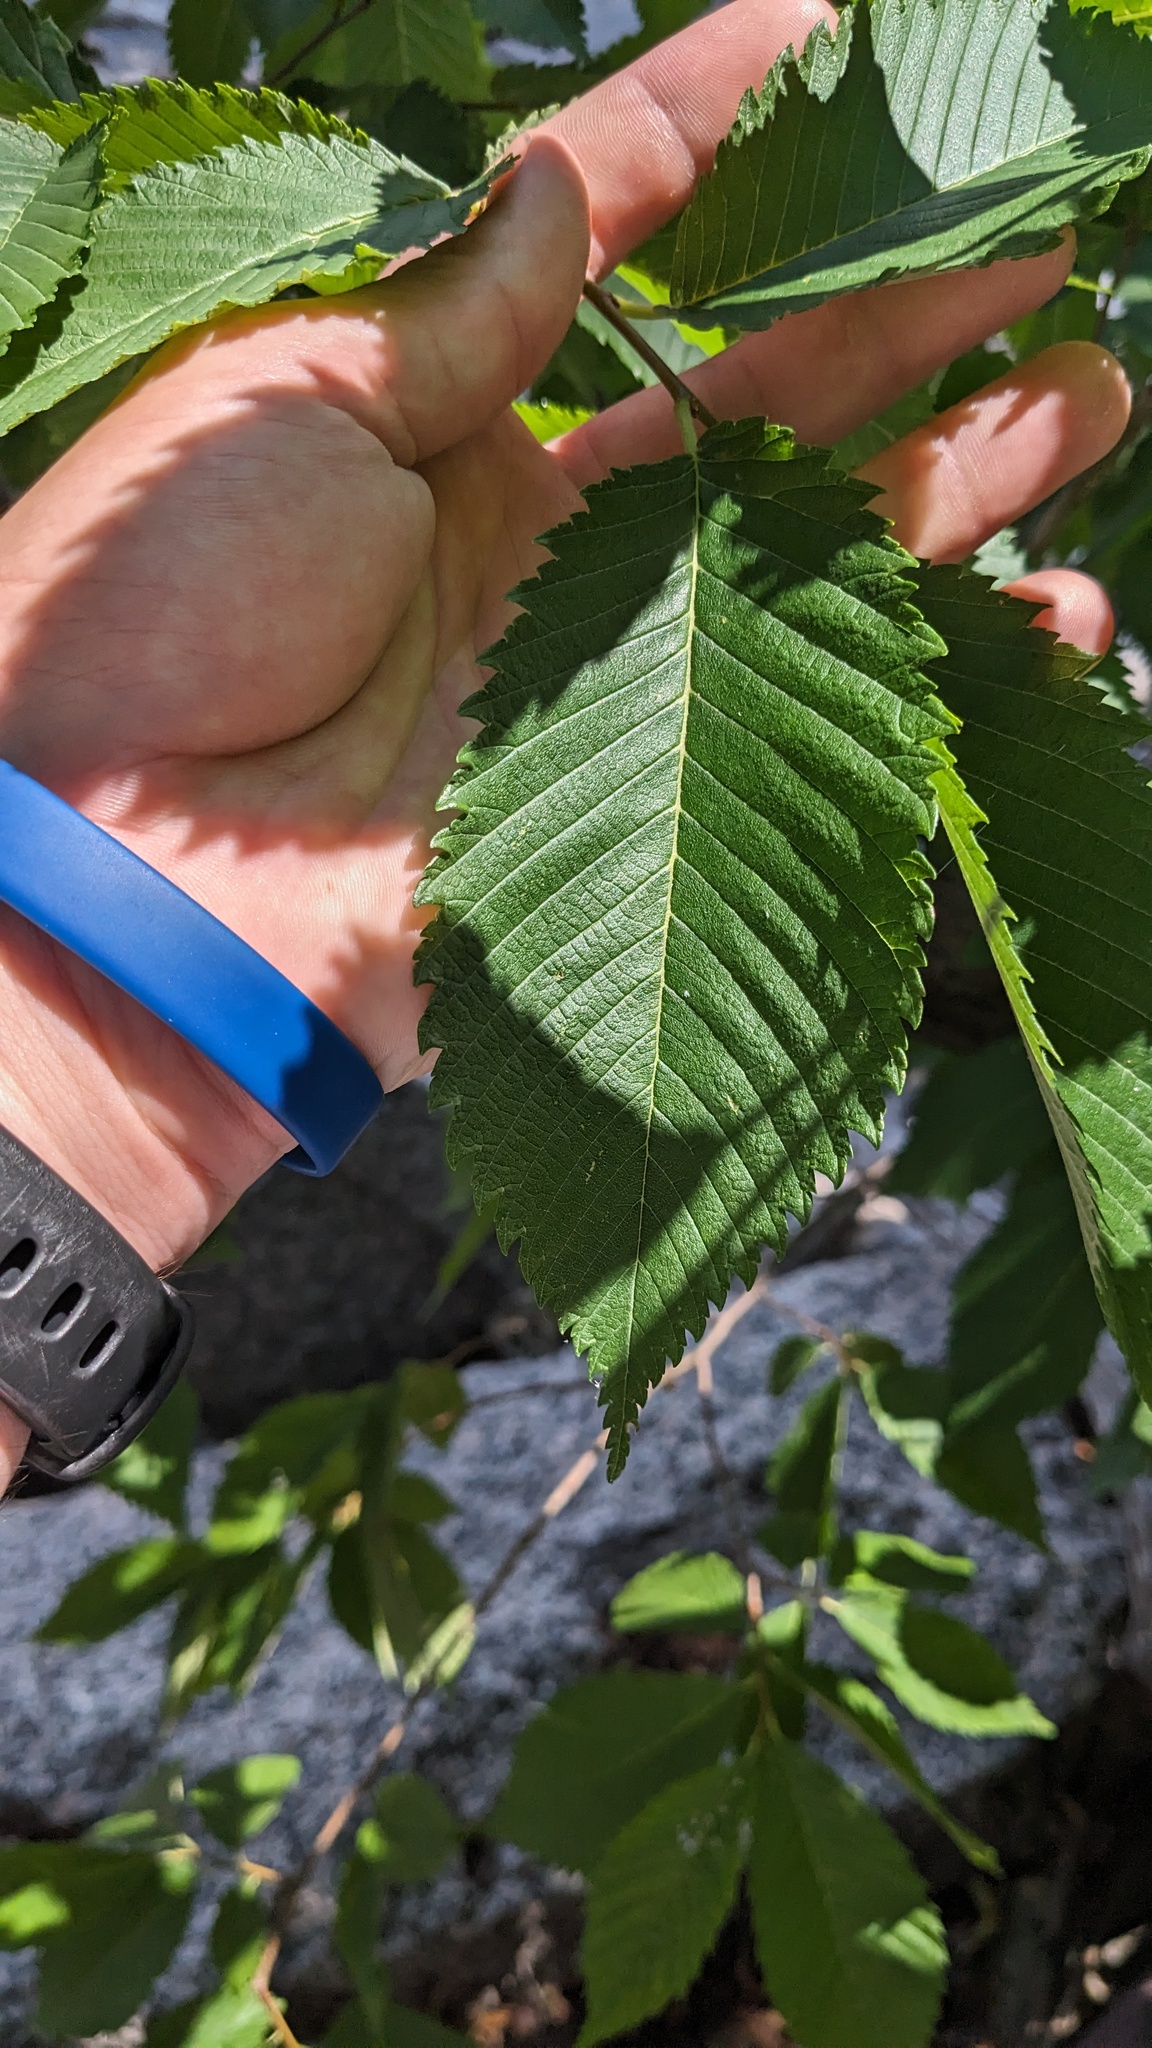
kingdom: Plantae
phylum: Tracheophyta
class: Magnoliopsida
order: Rosales
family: Ulmaceae
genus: Ulmus
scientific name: Ulmus americana
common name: American elm
